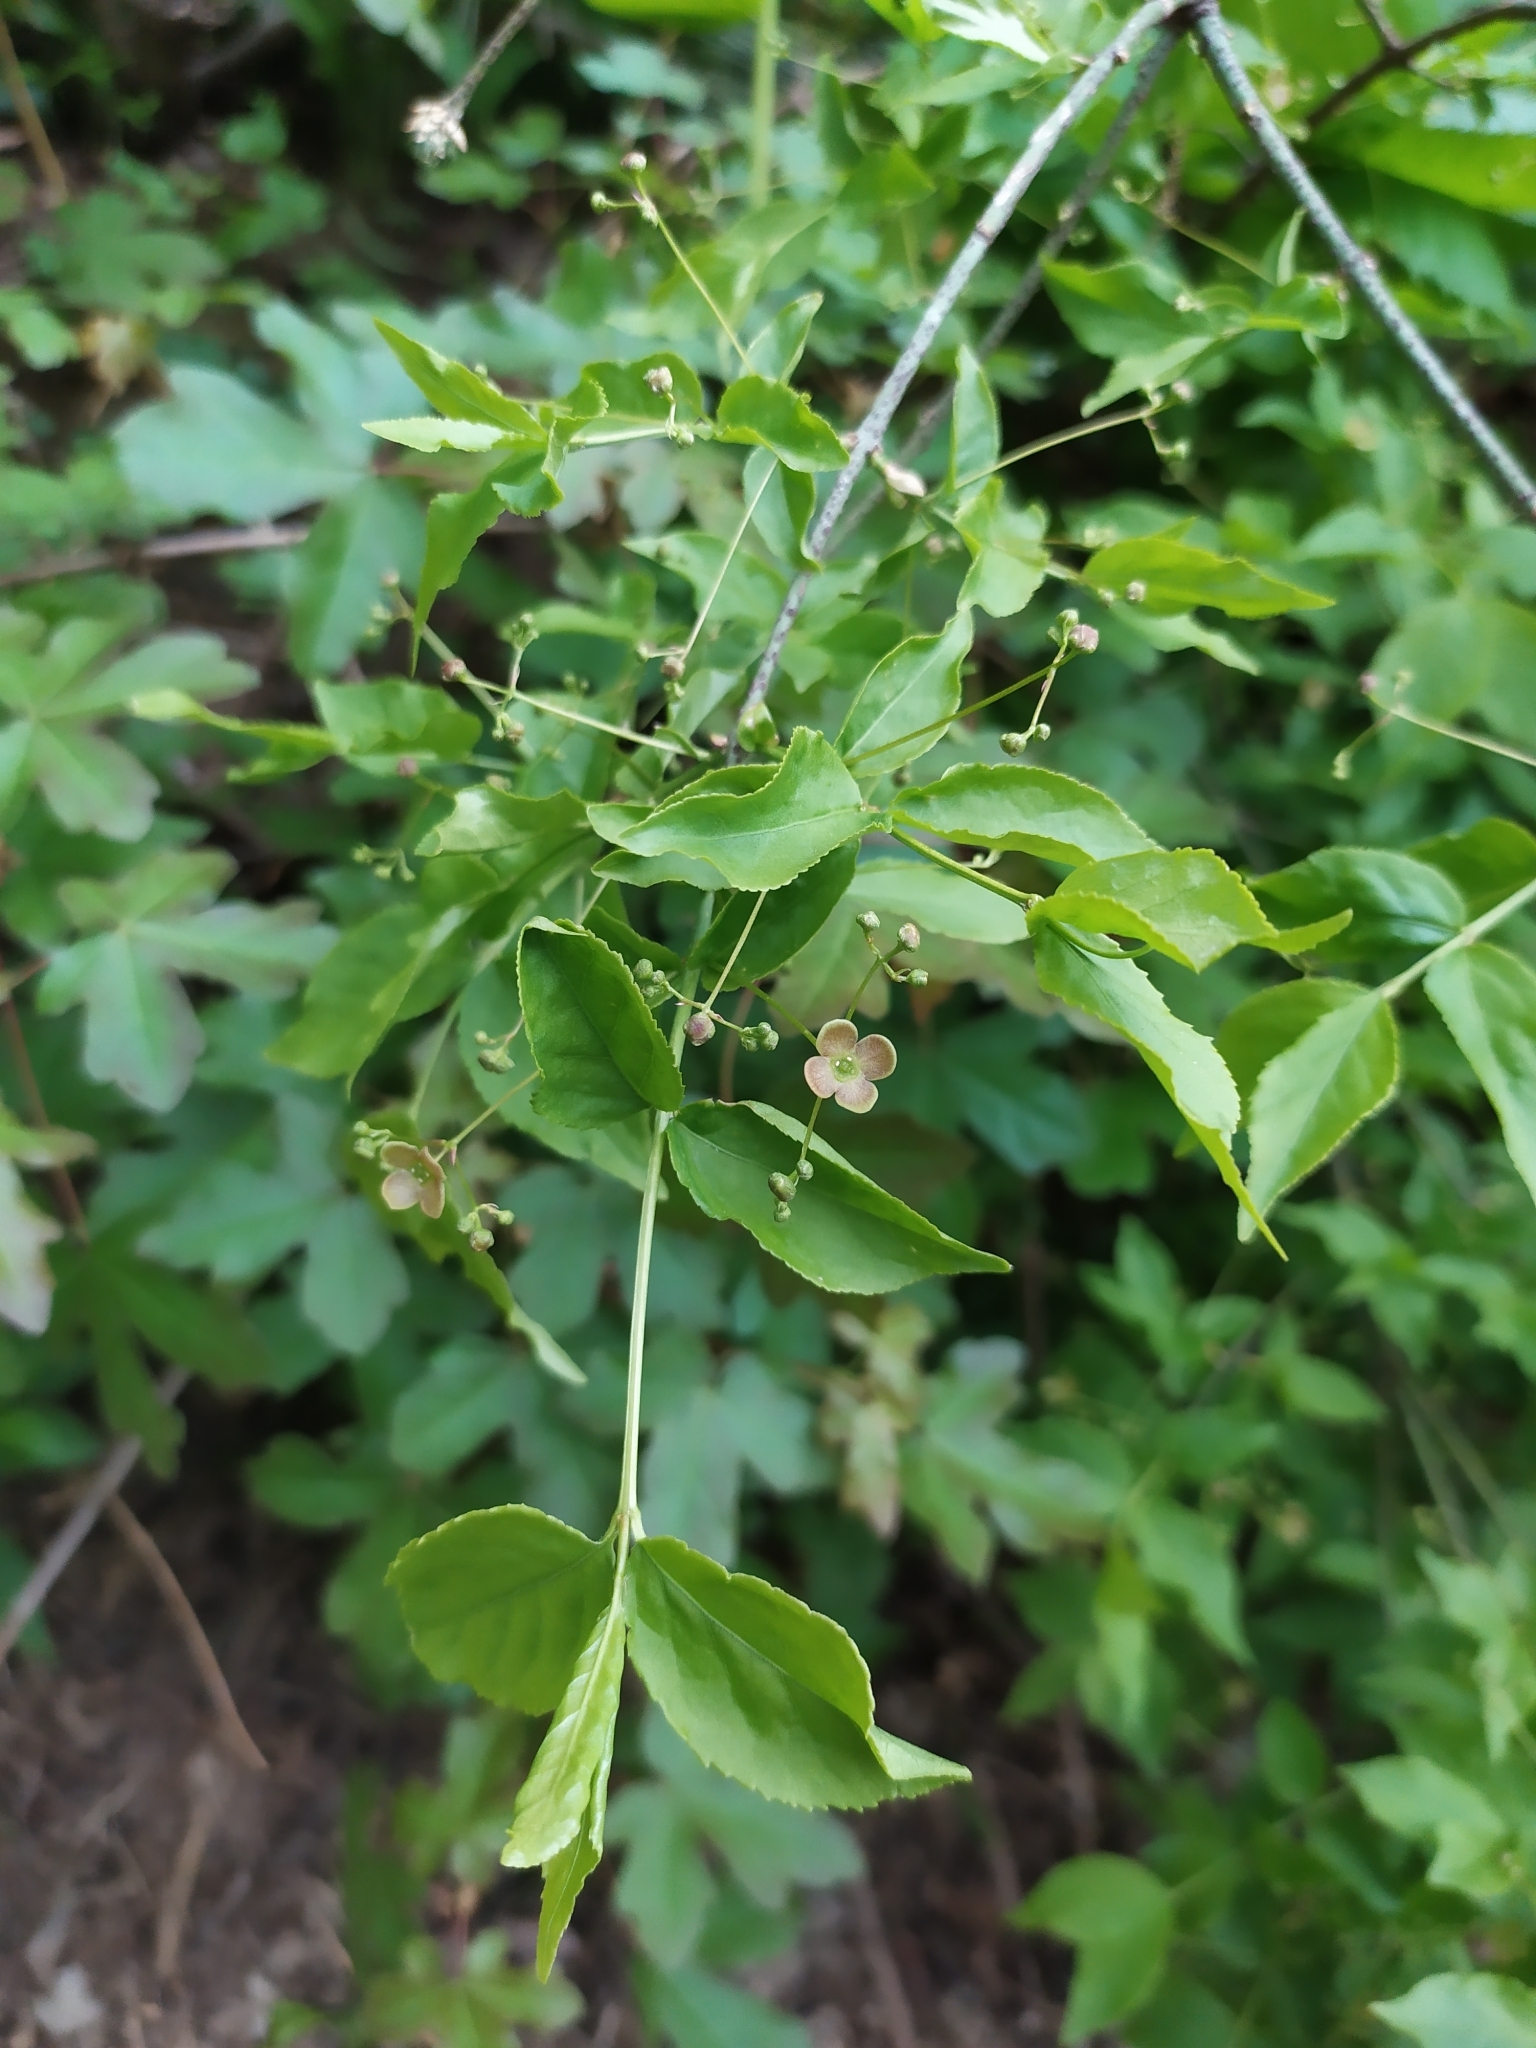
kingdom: Plantae
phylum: Tracheophyta
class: Magnoliopsida
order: Celastrales
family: Celastraceae
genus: Euonymus
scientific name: Euonymus verrucosus
